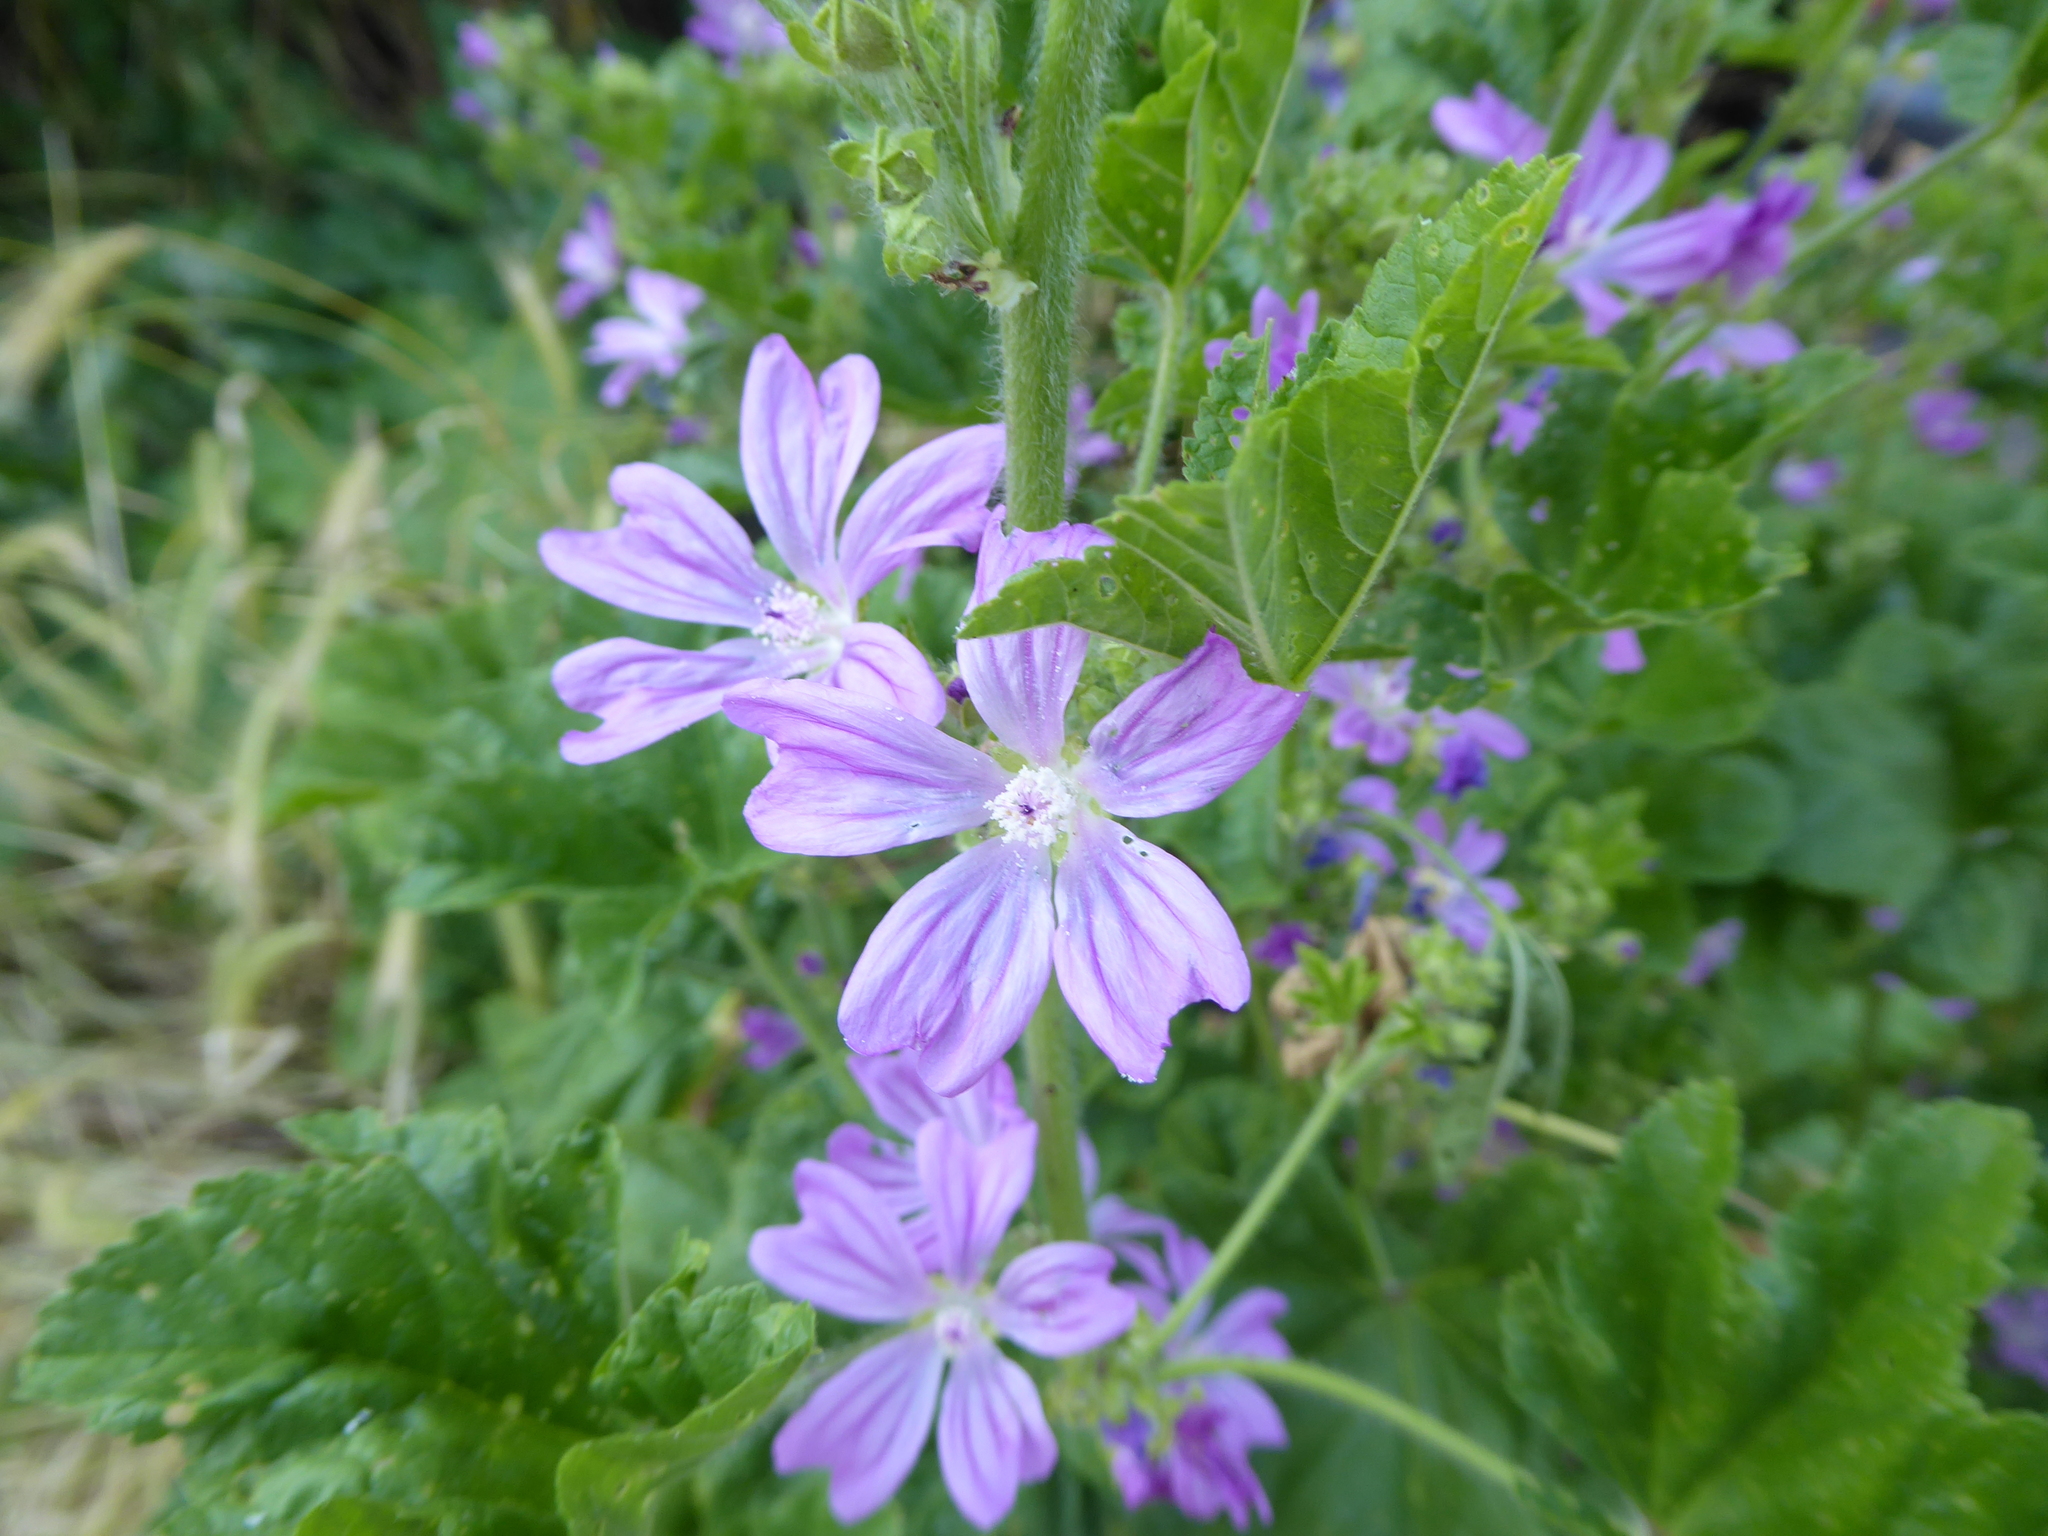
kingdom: Plantae
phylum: Tracheophyta
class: Magnoliopsida
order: Malvales
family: Malvaceae
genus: Malva
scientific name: Malva sylvestris
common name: Common mallow
